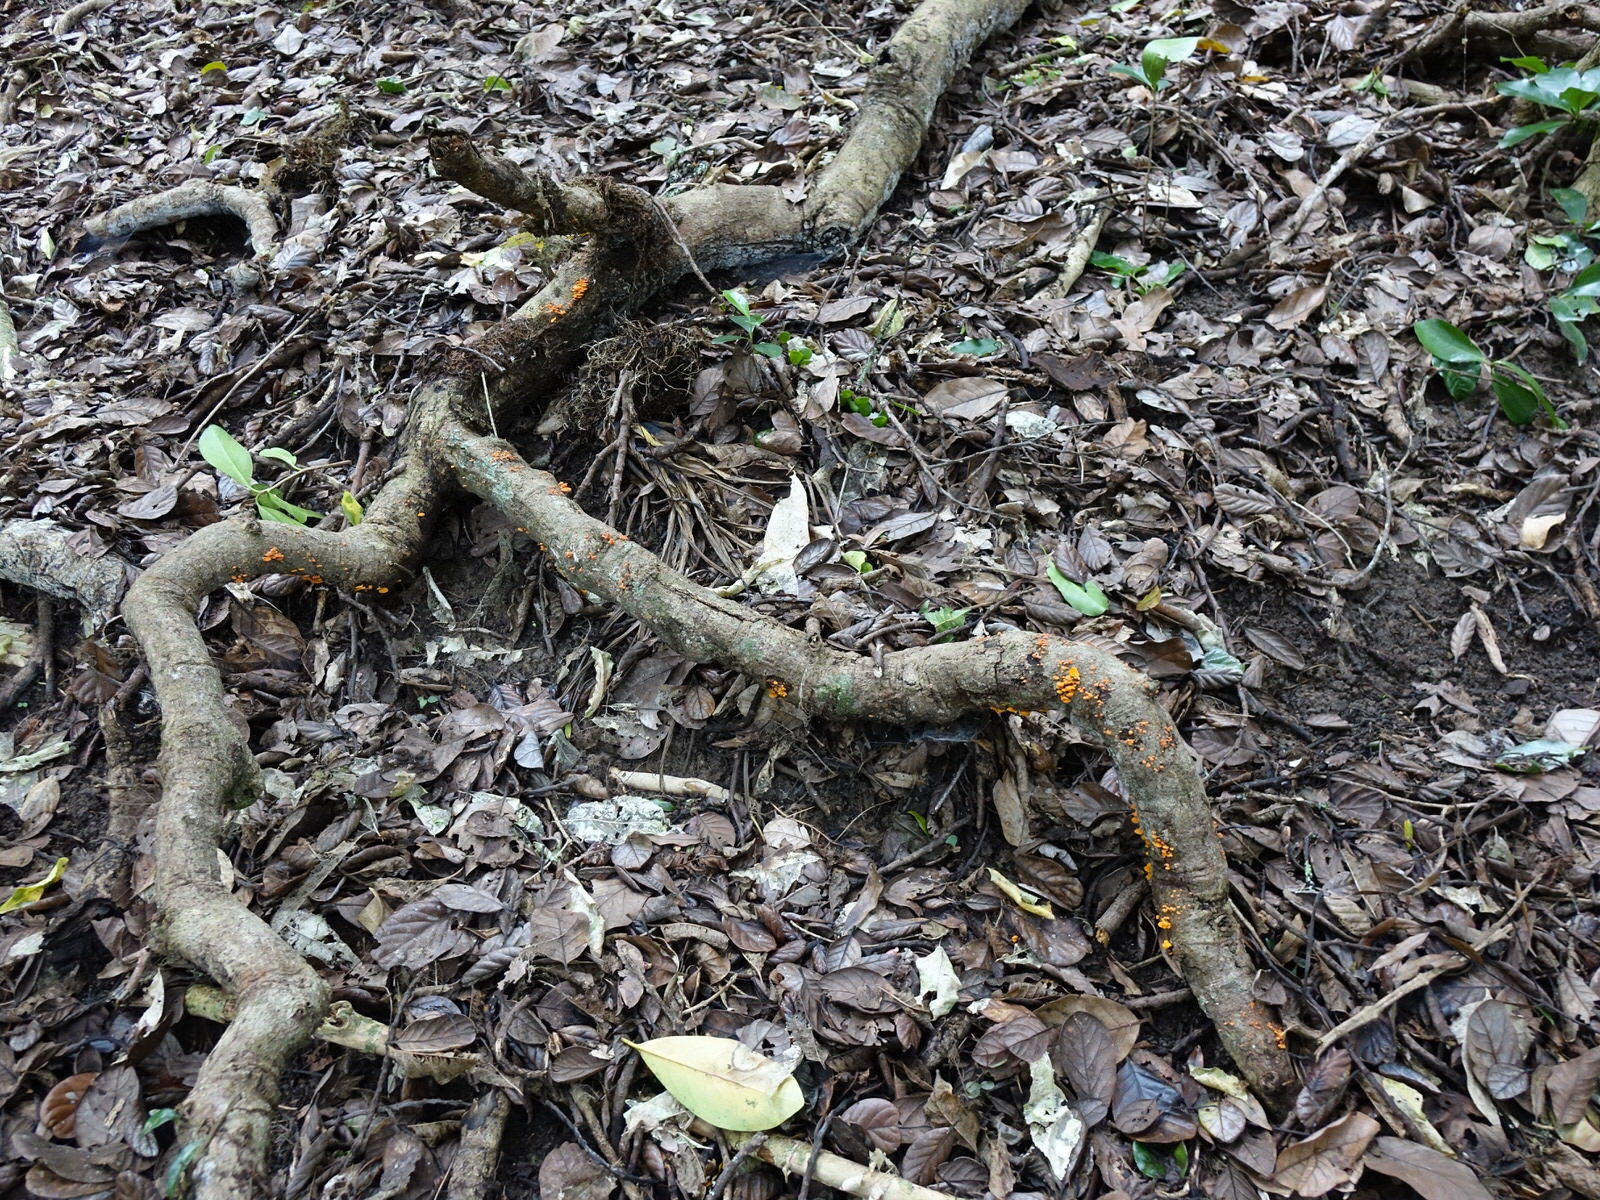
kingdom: Fungi
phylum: Basidiomycota
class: Agaricomycetes
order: Agaricales
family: Mycenaceae
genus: Favolaschia
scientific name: Favolaschia claudopus
